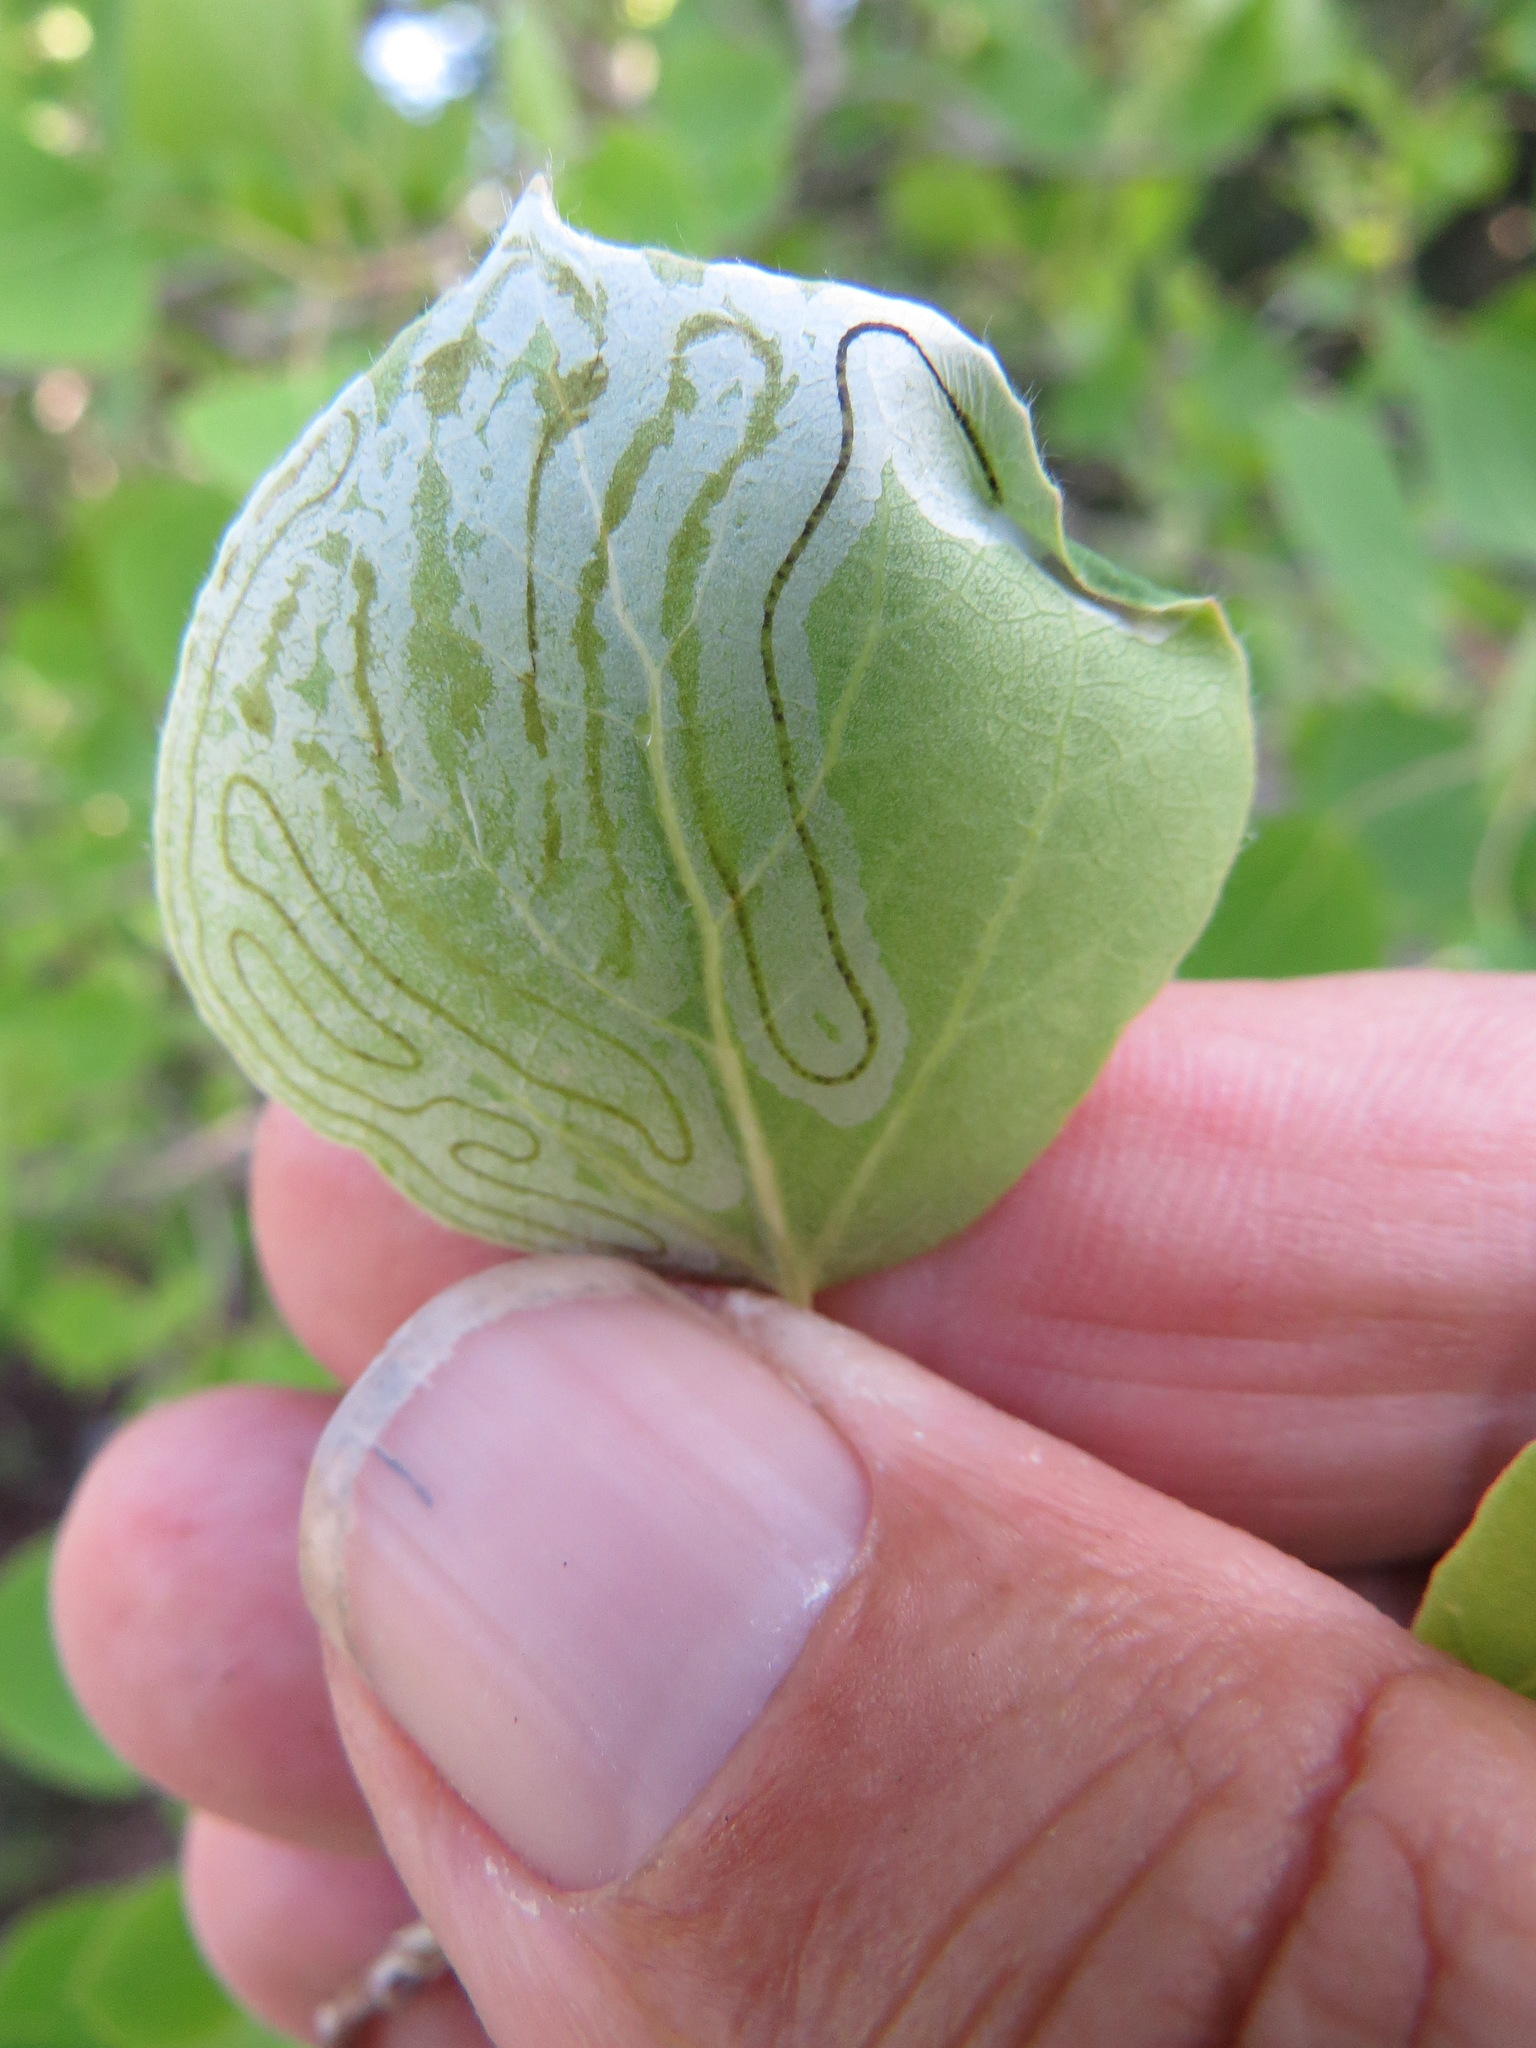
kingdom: Animalia
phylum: Arthropoda
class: Insecta
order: Lepidoptera
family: Gracillariidae
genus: Phyllocnistis
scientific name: Phyllocnistis populiella
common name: Aspen serpentine leafminer moth
